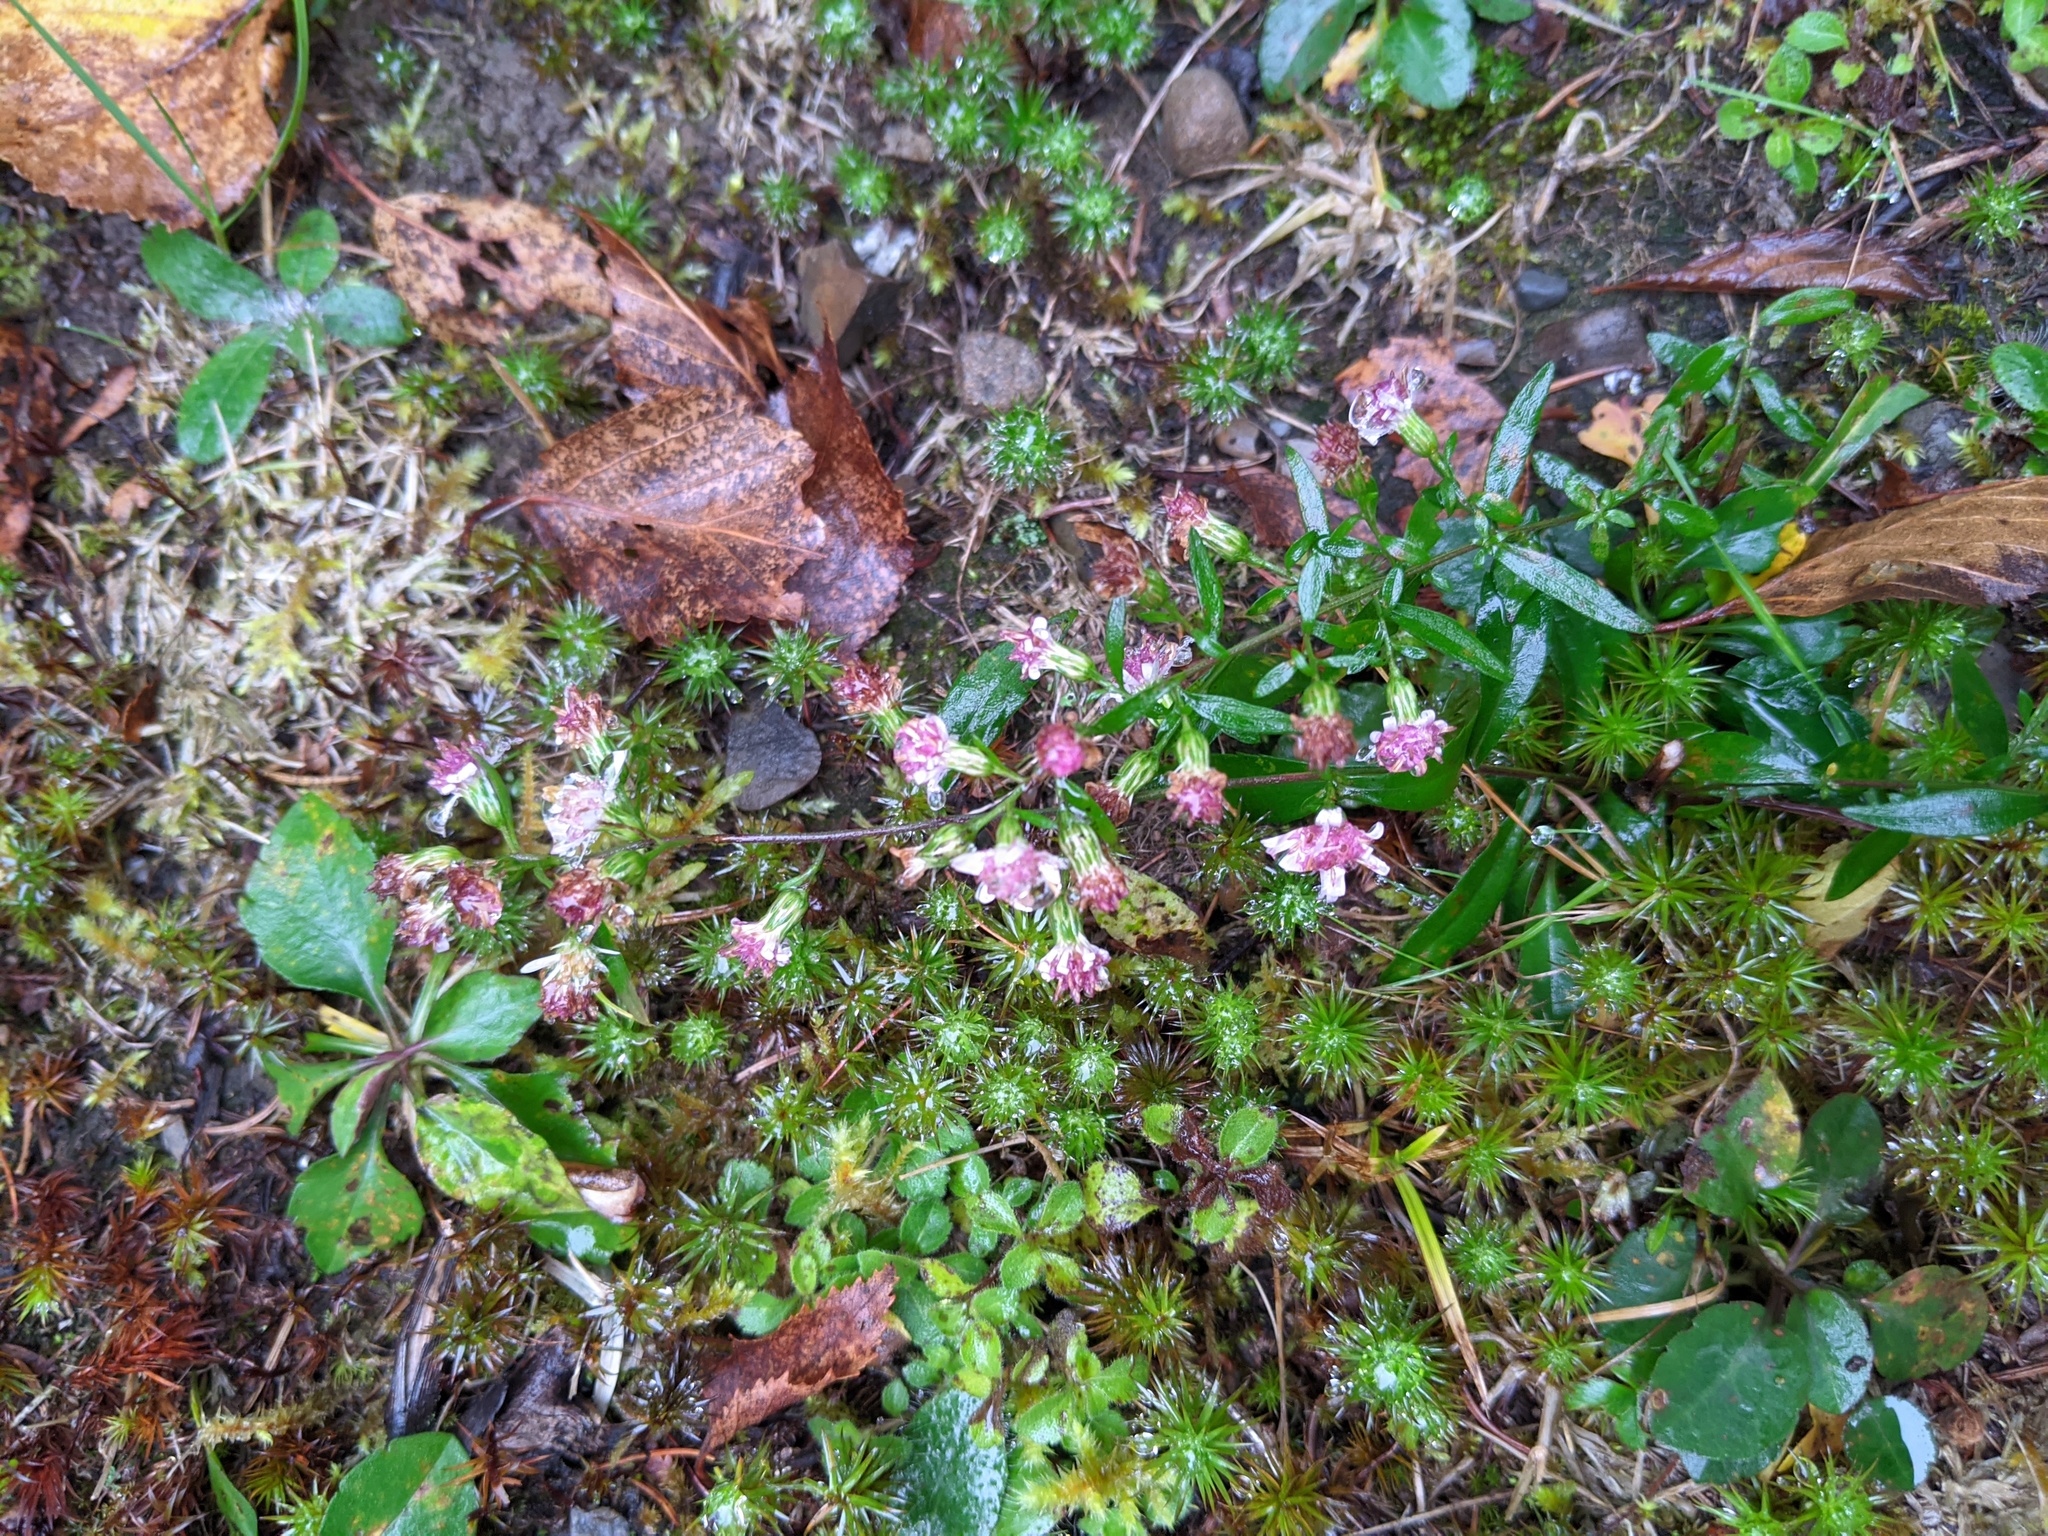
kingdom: Plantae
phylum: Tracheophyta
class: Magnoliopsida
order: Asterales
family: Asteraceae
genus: Symphyotrichum
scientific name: Symphyotrichum lateriflorum
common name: Calico aster
